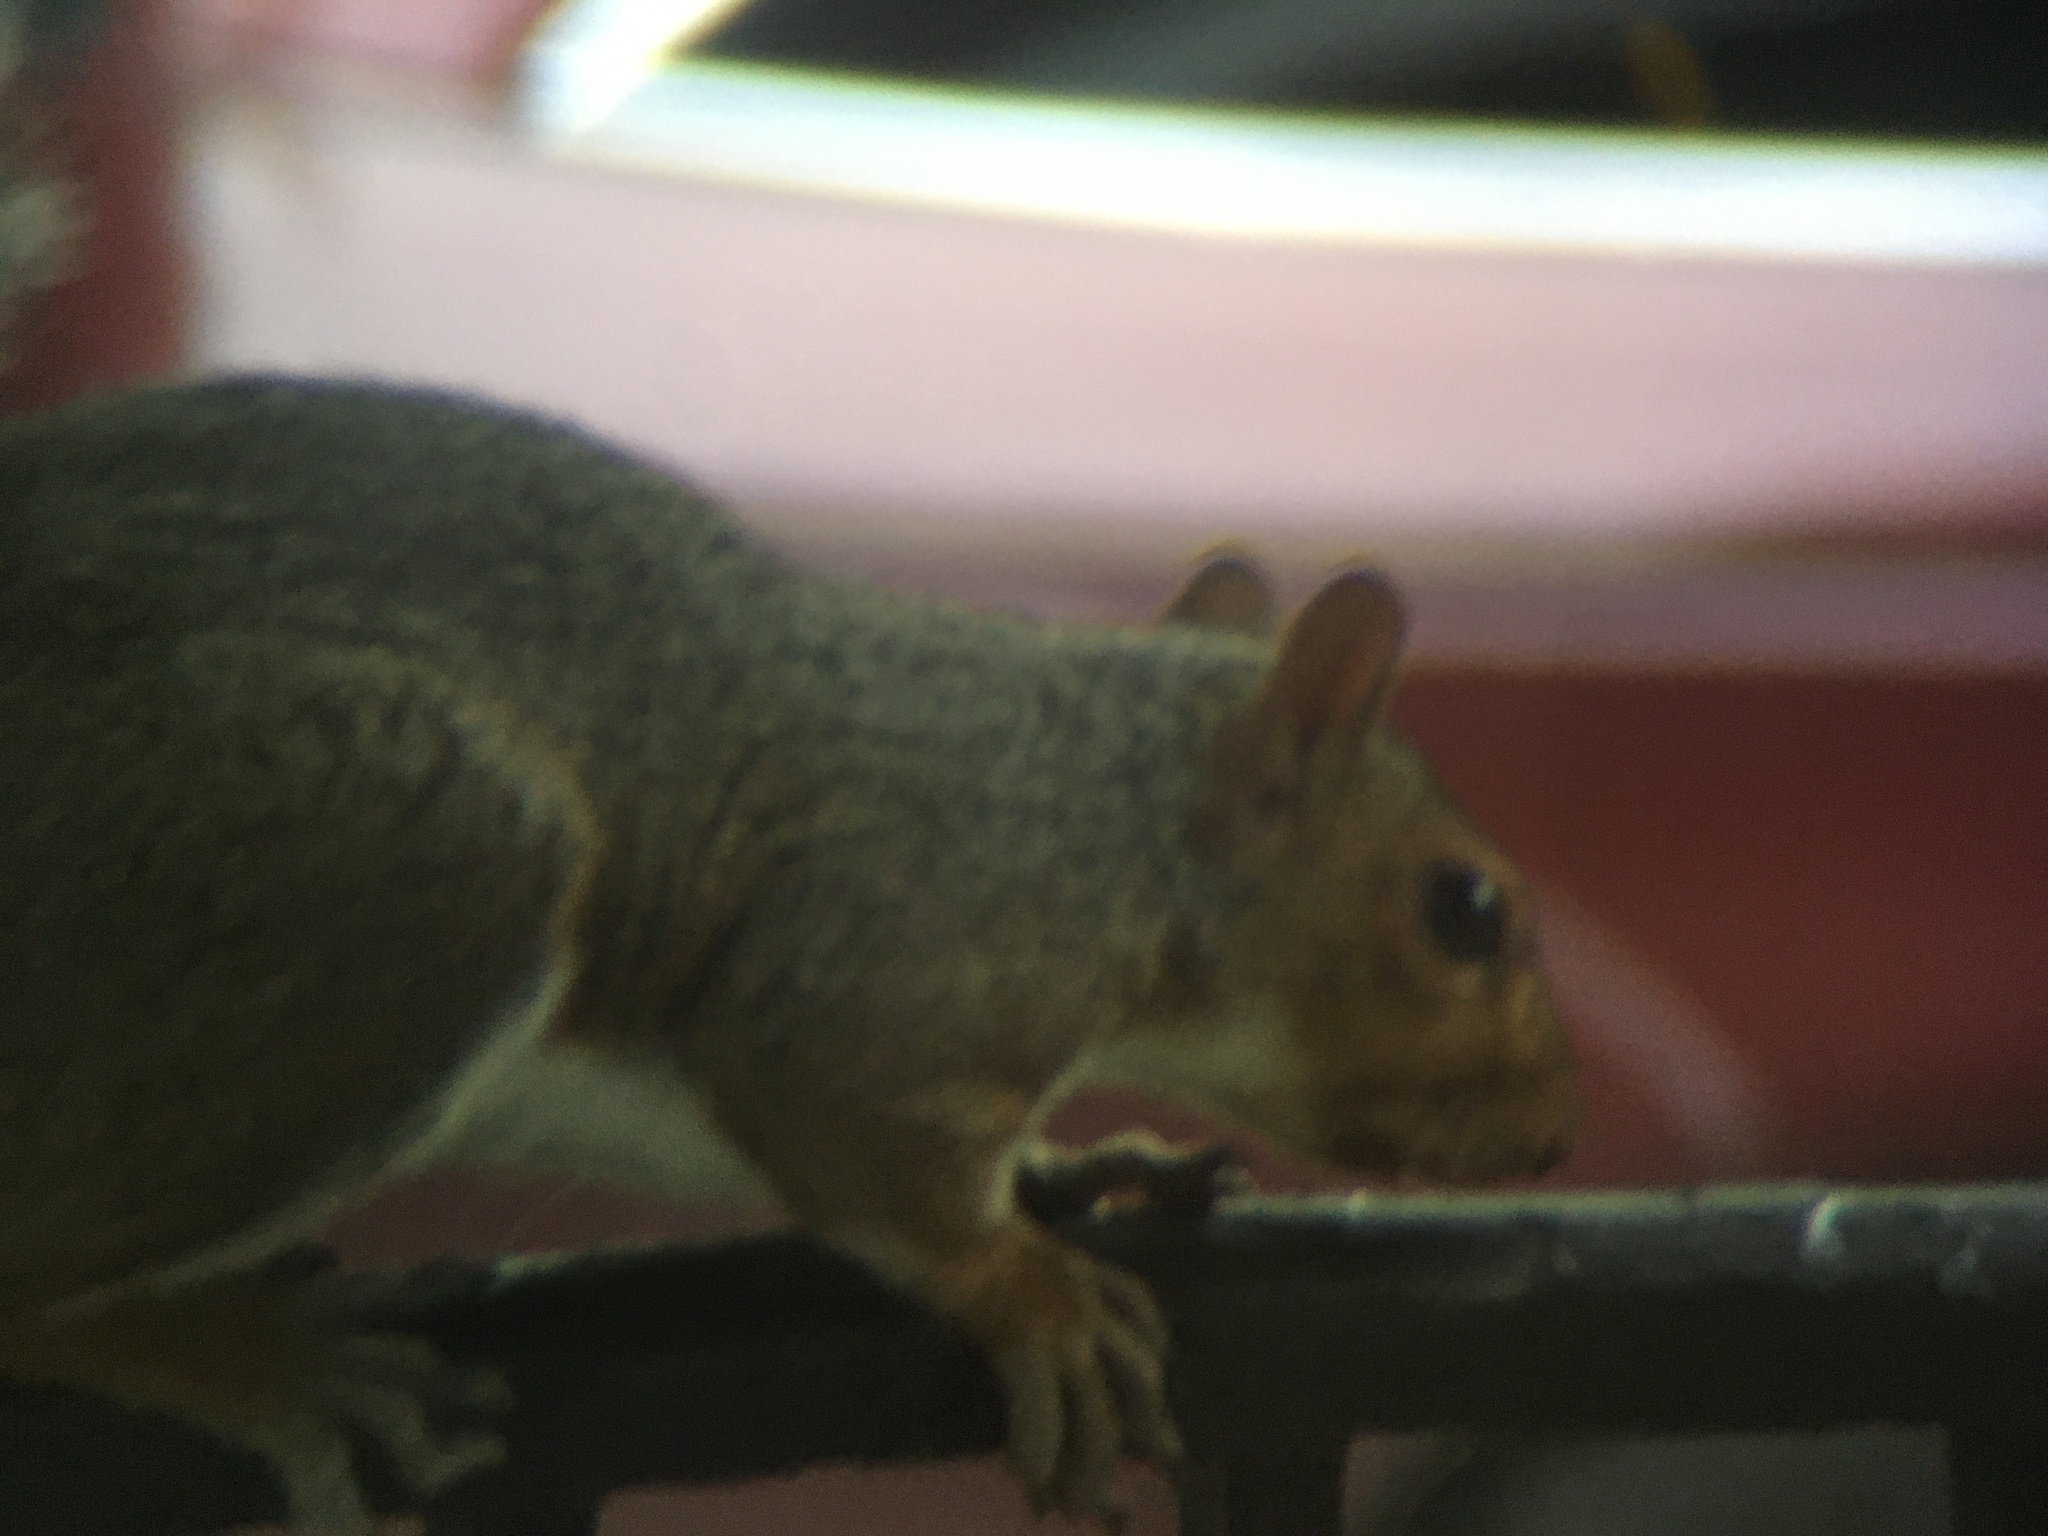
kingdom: Animalia
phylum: Chordata
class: Mammalia
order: Rodentia
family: Sciuridae
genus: Sciurus
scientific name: Sciurus carolinensis
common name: Eastern gray squirrel
